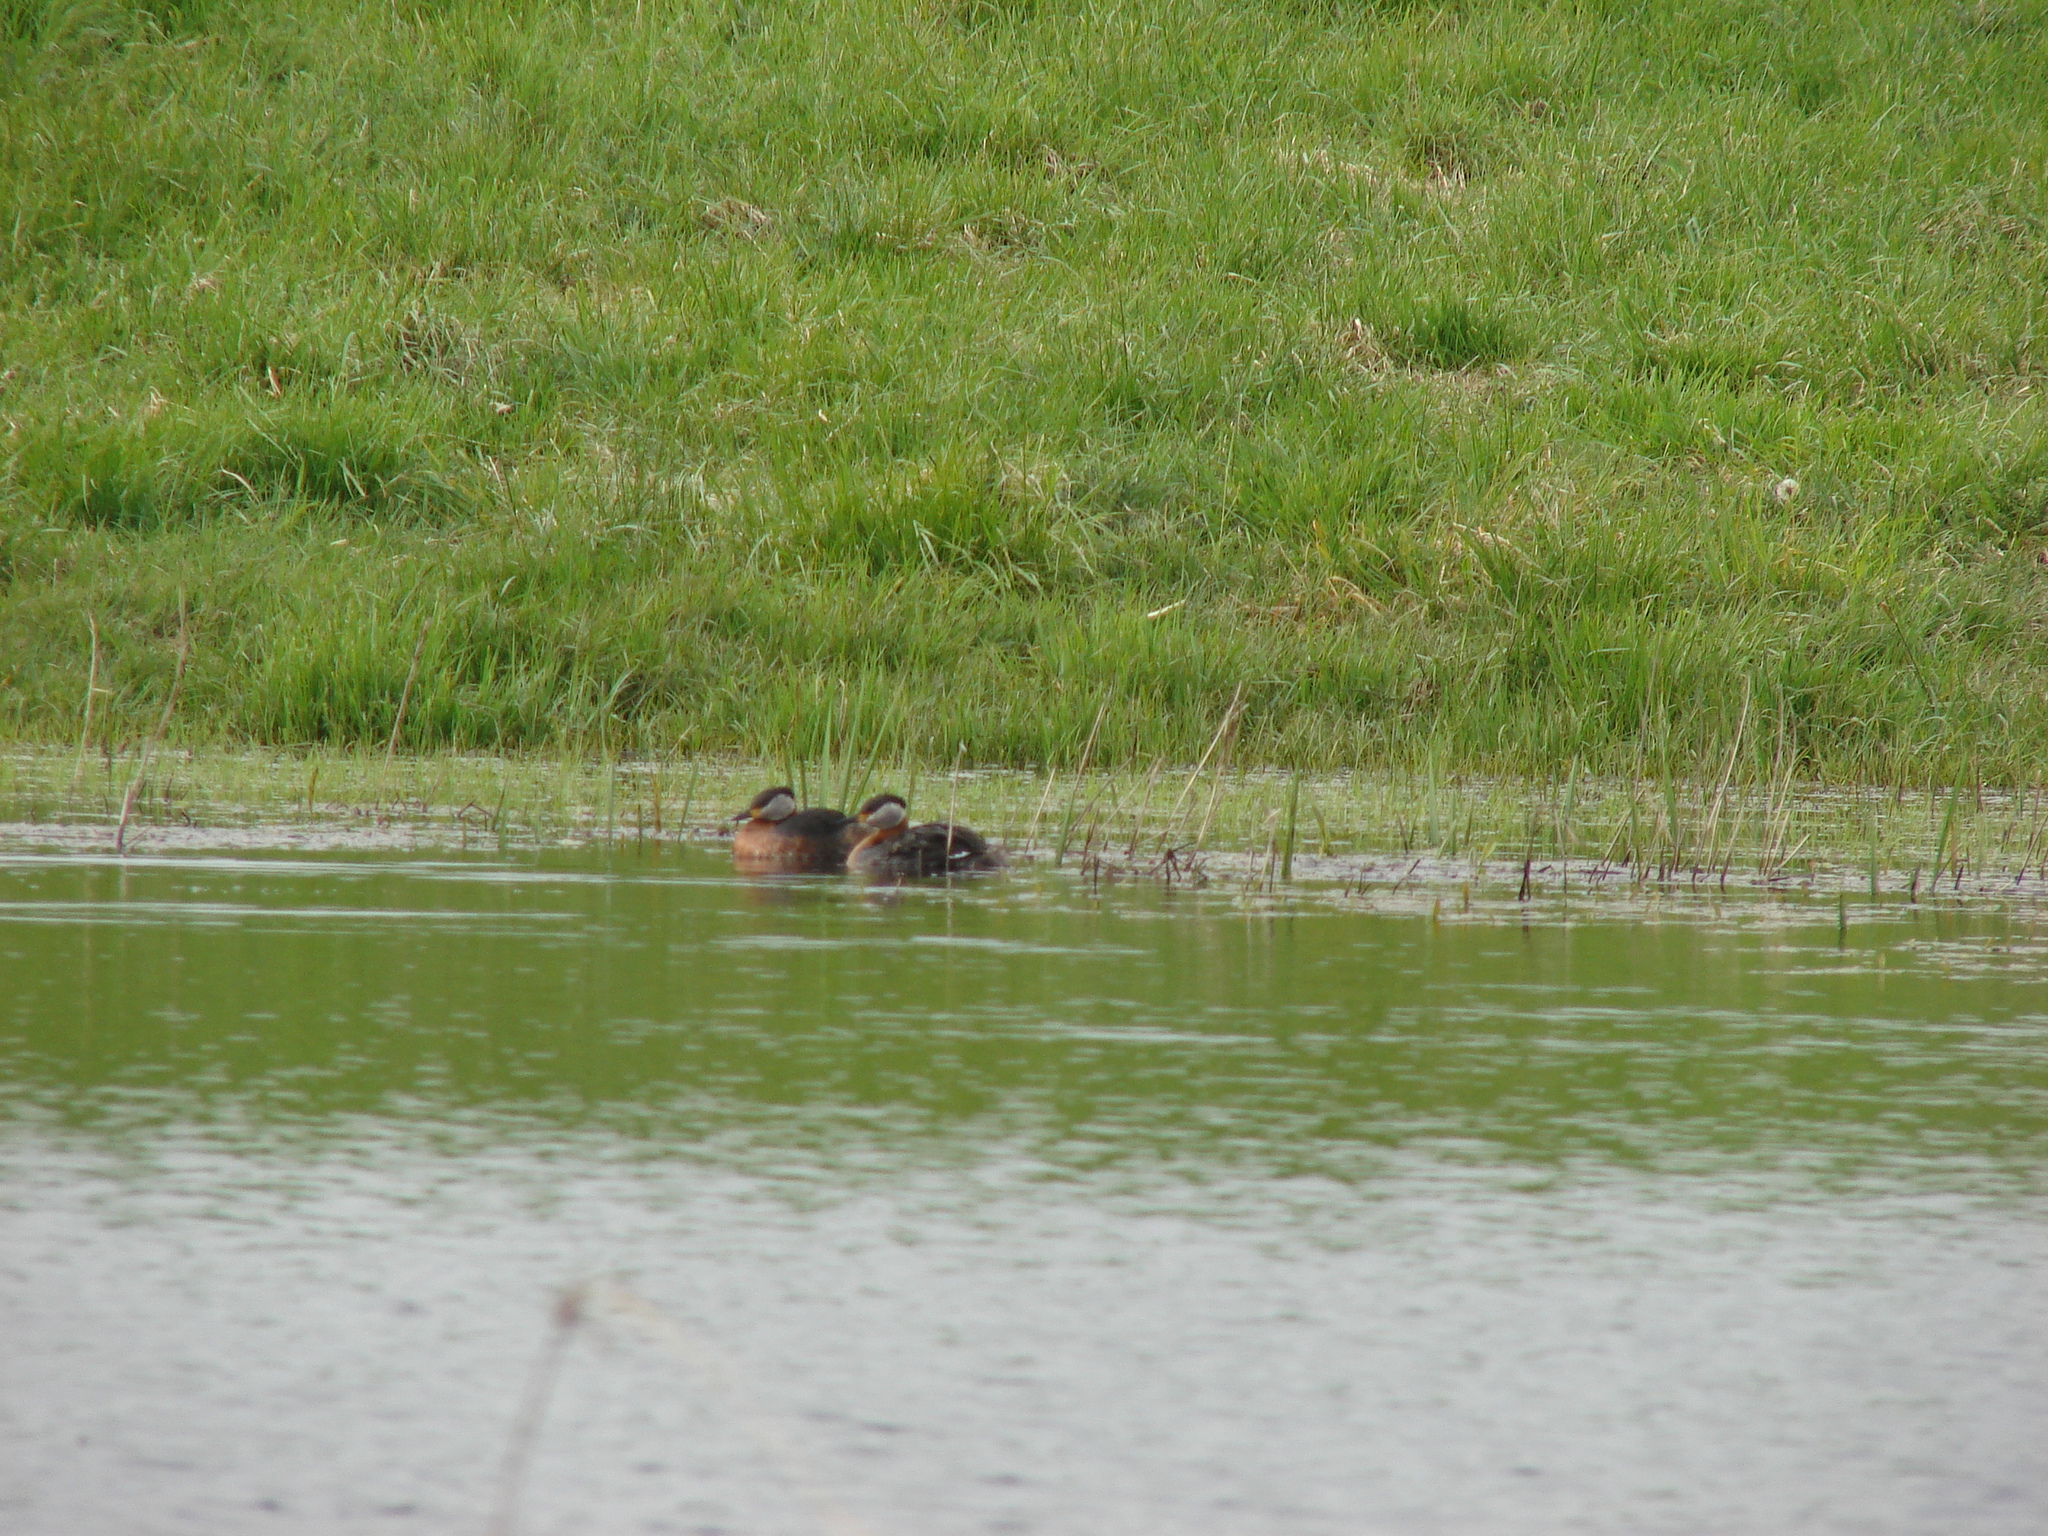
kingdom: Animalia
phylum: Chordata
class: Aves
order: Podicipediformes
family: Podicipedidae
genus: Podiceps
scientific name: Podiceps grisegena
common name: Red-necked grebe
